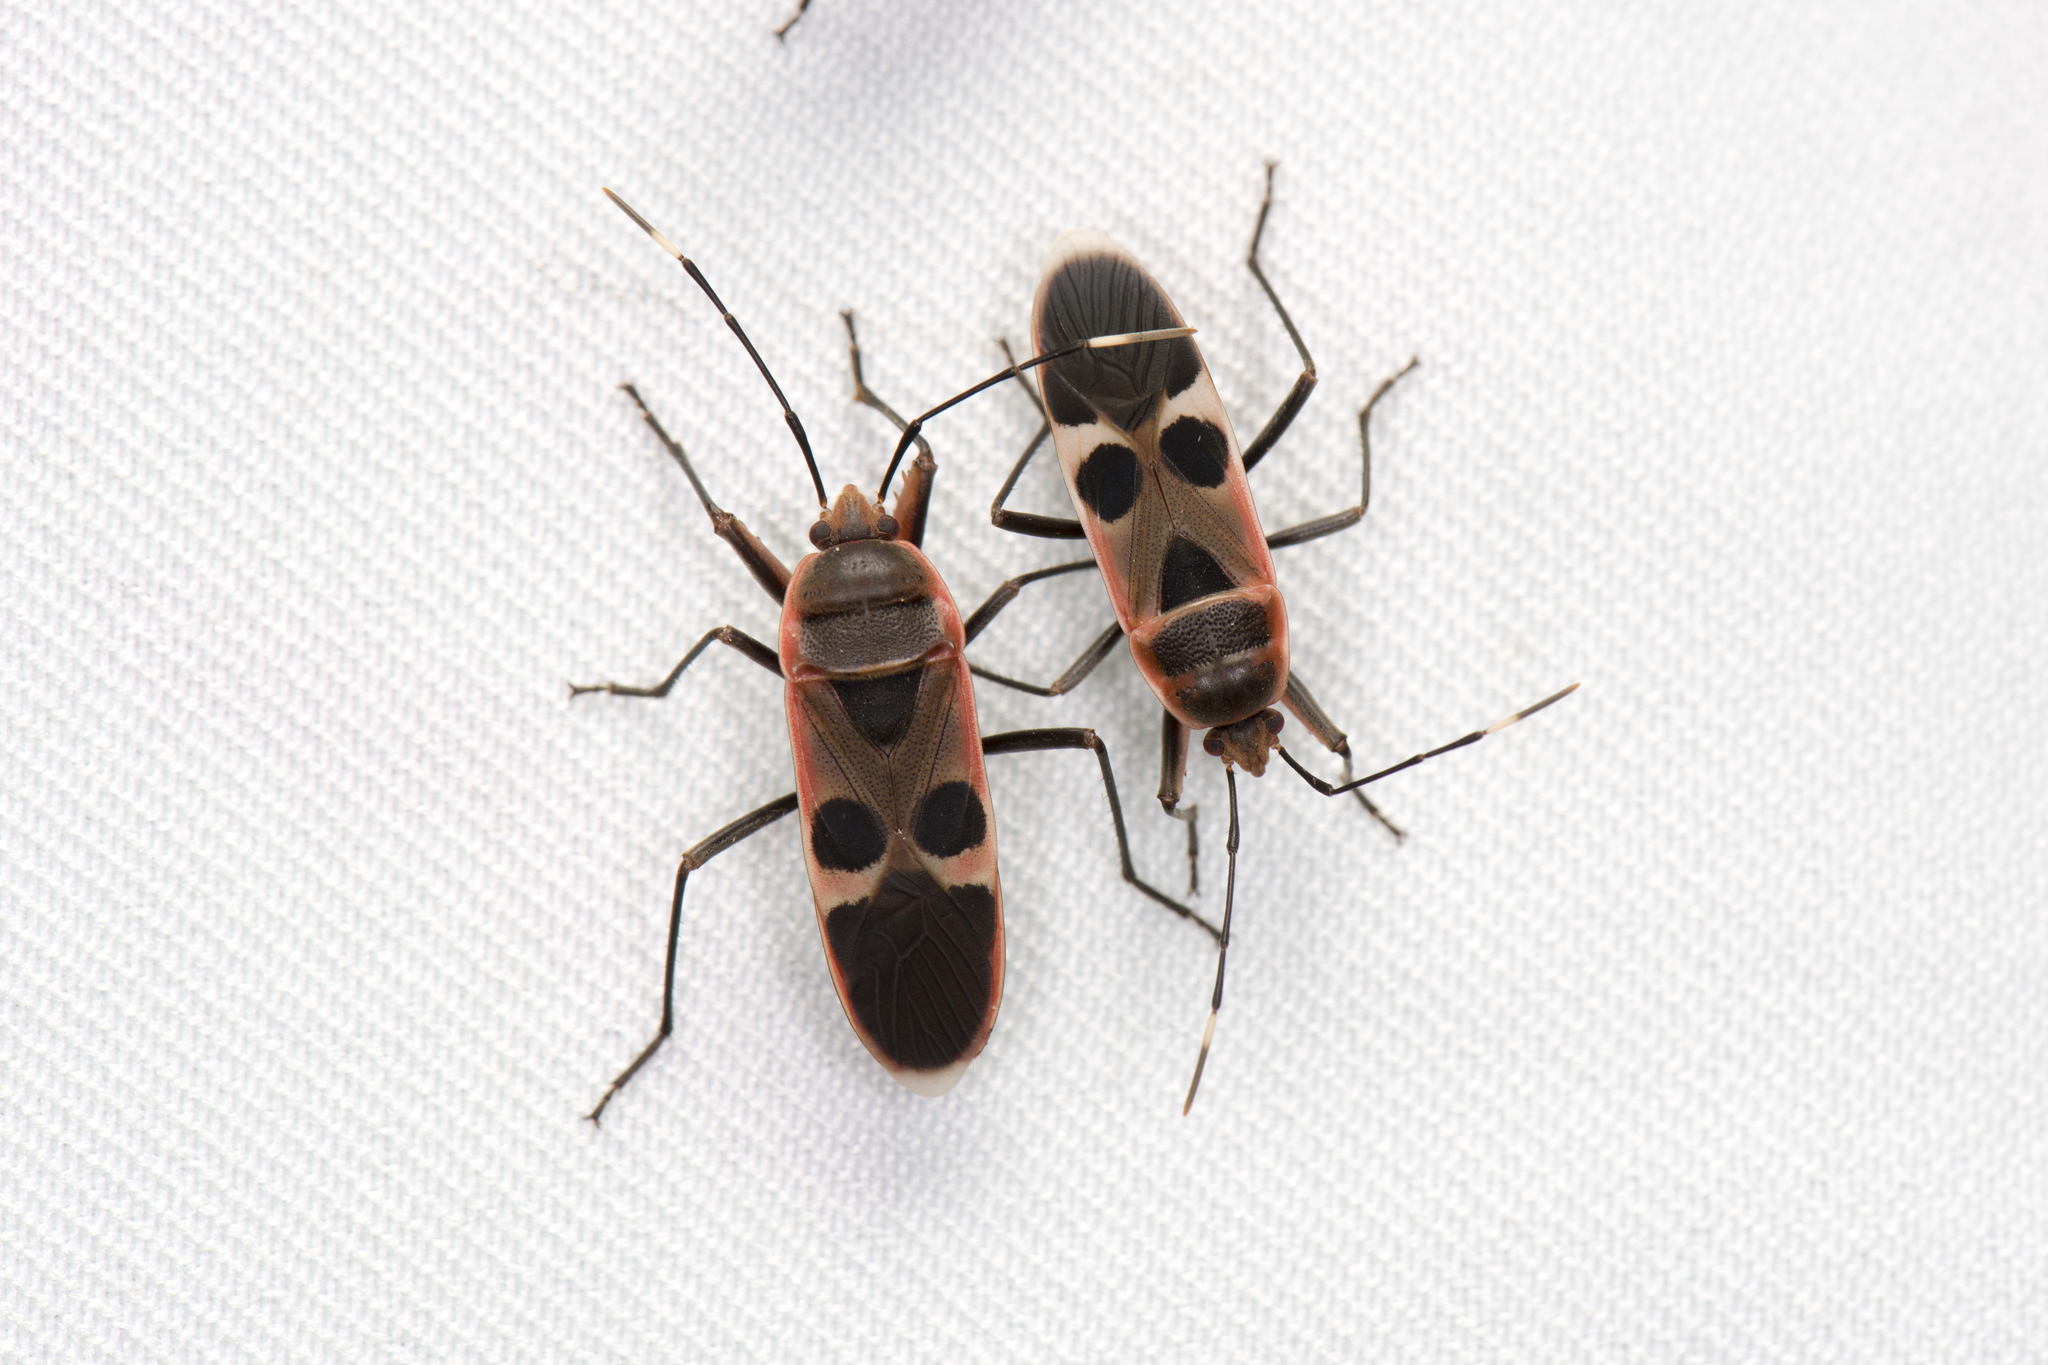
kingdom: Animalia
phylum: Arthropoda
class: Insecta
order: Hemiptera
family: Largidae
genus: Physopelta
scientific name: Physopelta gutta
